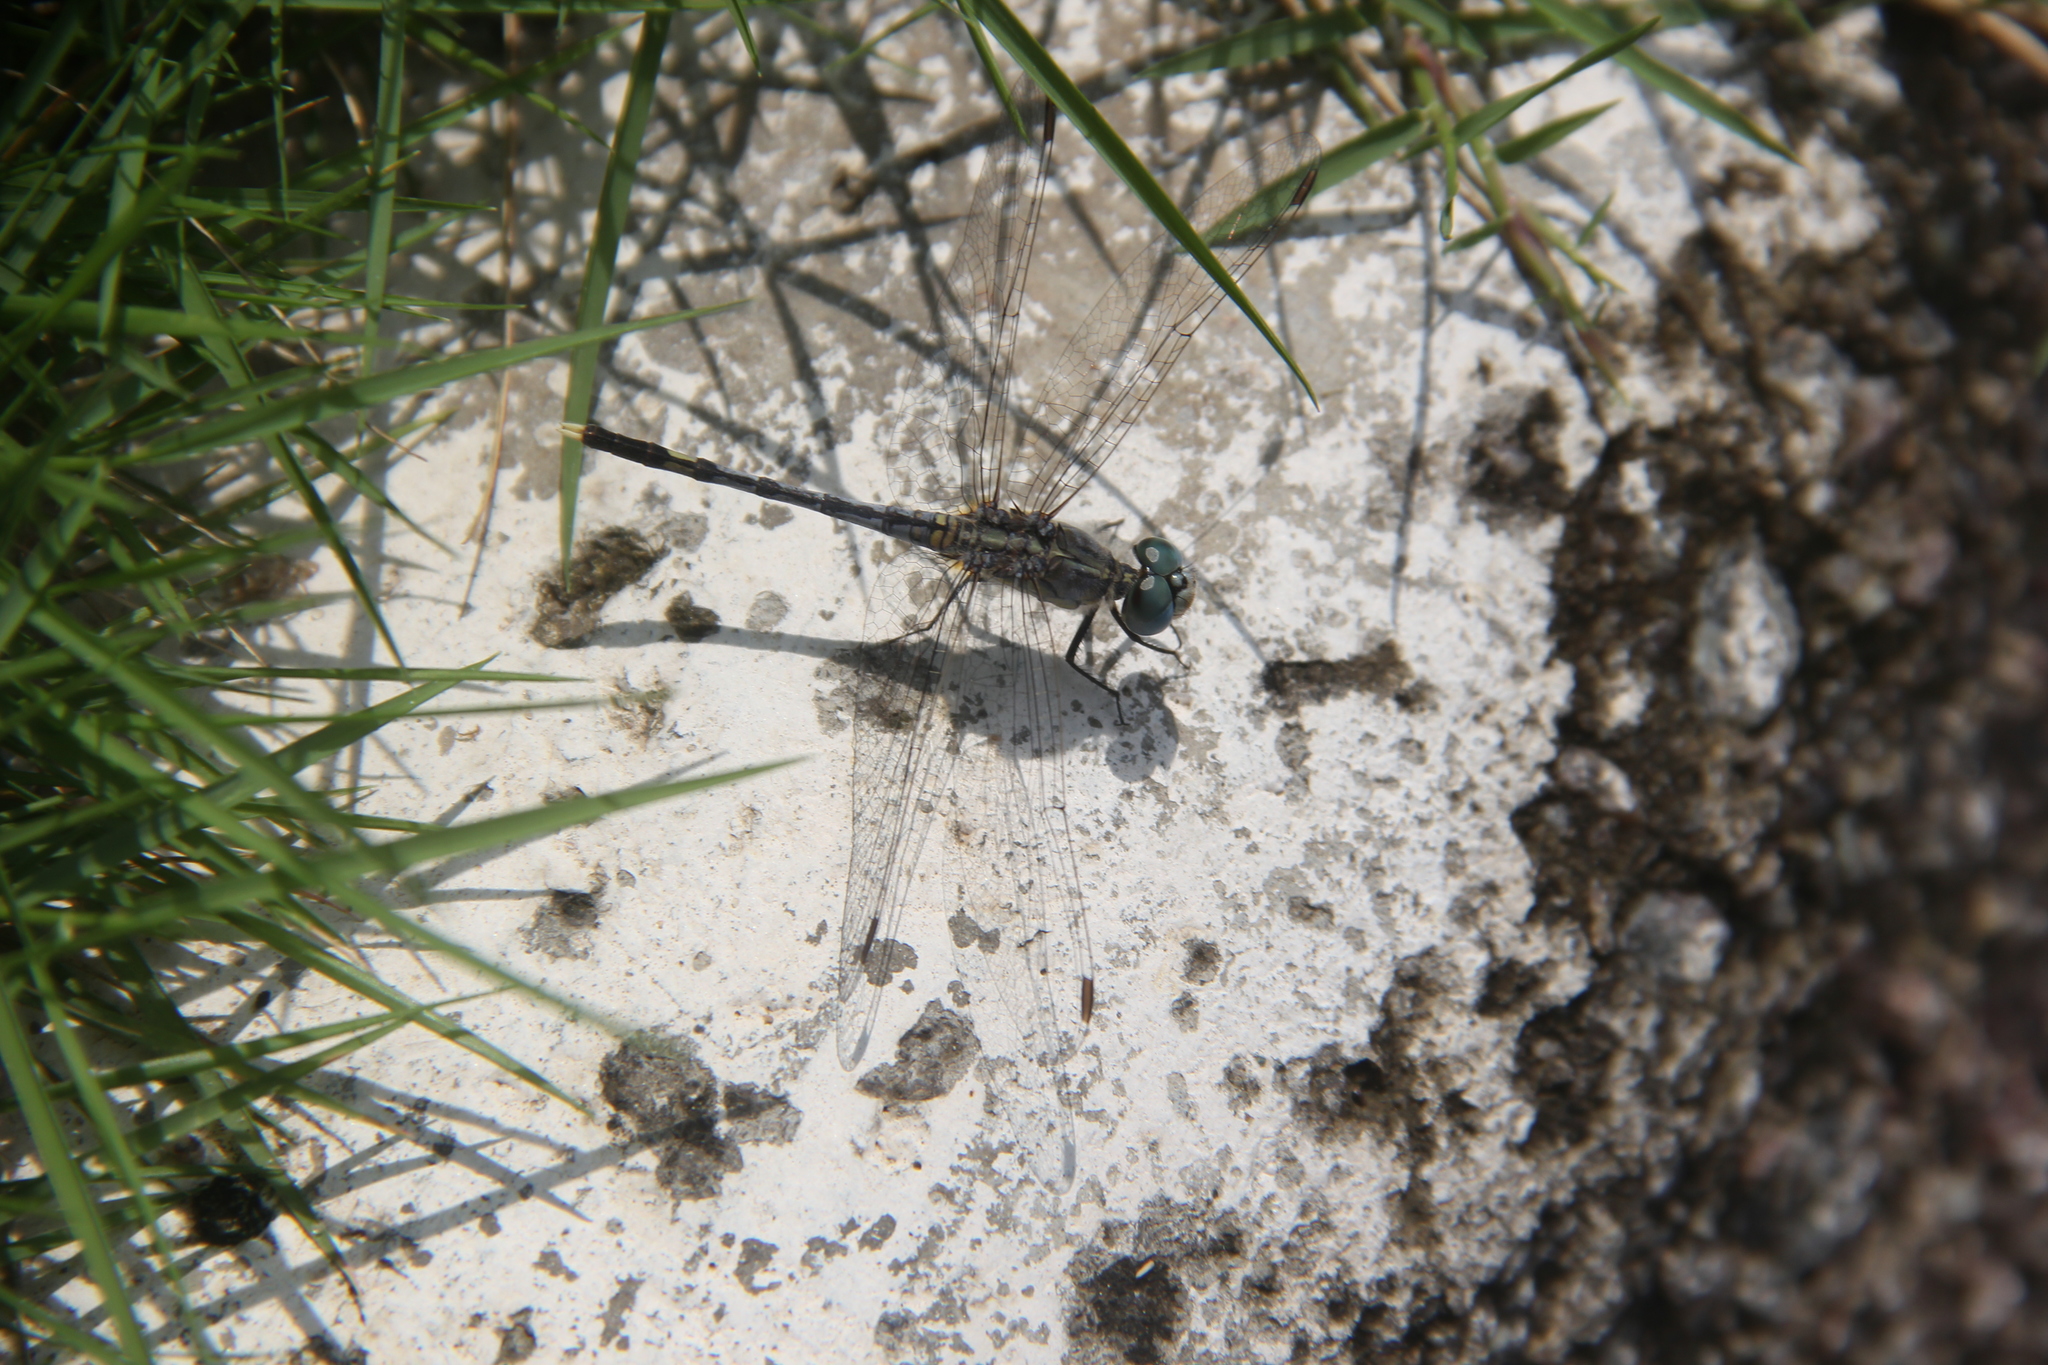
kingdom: Animalia
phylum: Arthropoda
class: Insecta
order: Odonata
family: Libellulidae
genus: Diplacodes
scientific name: Diplacodes trivialis
